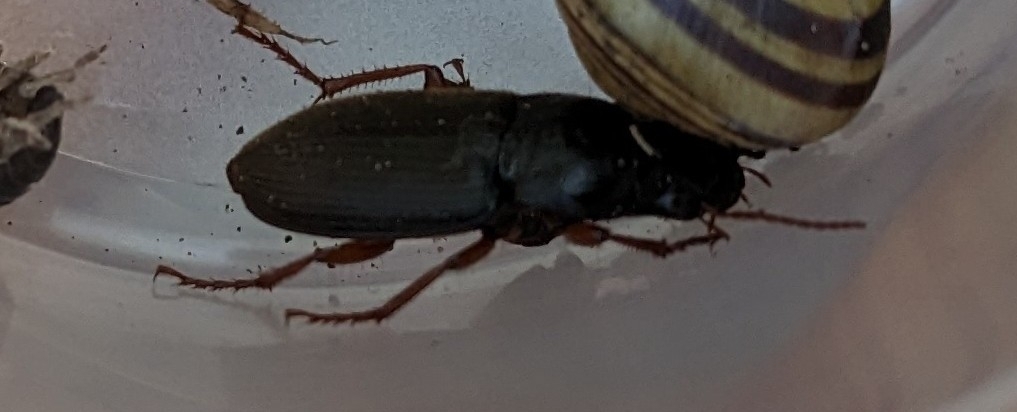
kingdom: Animalia
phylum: Arthropoda
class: Insecta
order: Coleoptera
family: Carabidae
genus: Harpalus
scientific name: Harpalus rufipes
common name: Strawberry harp ground beetle
